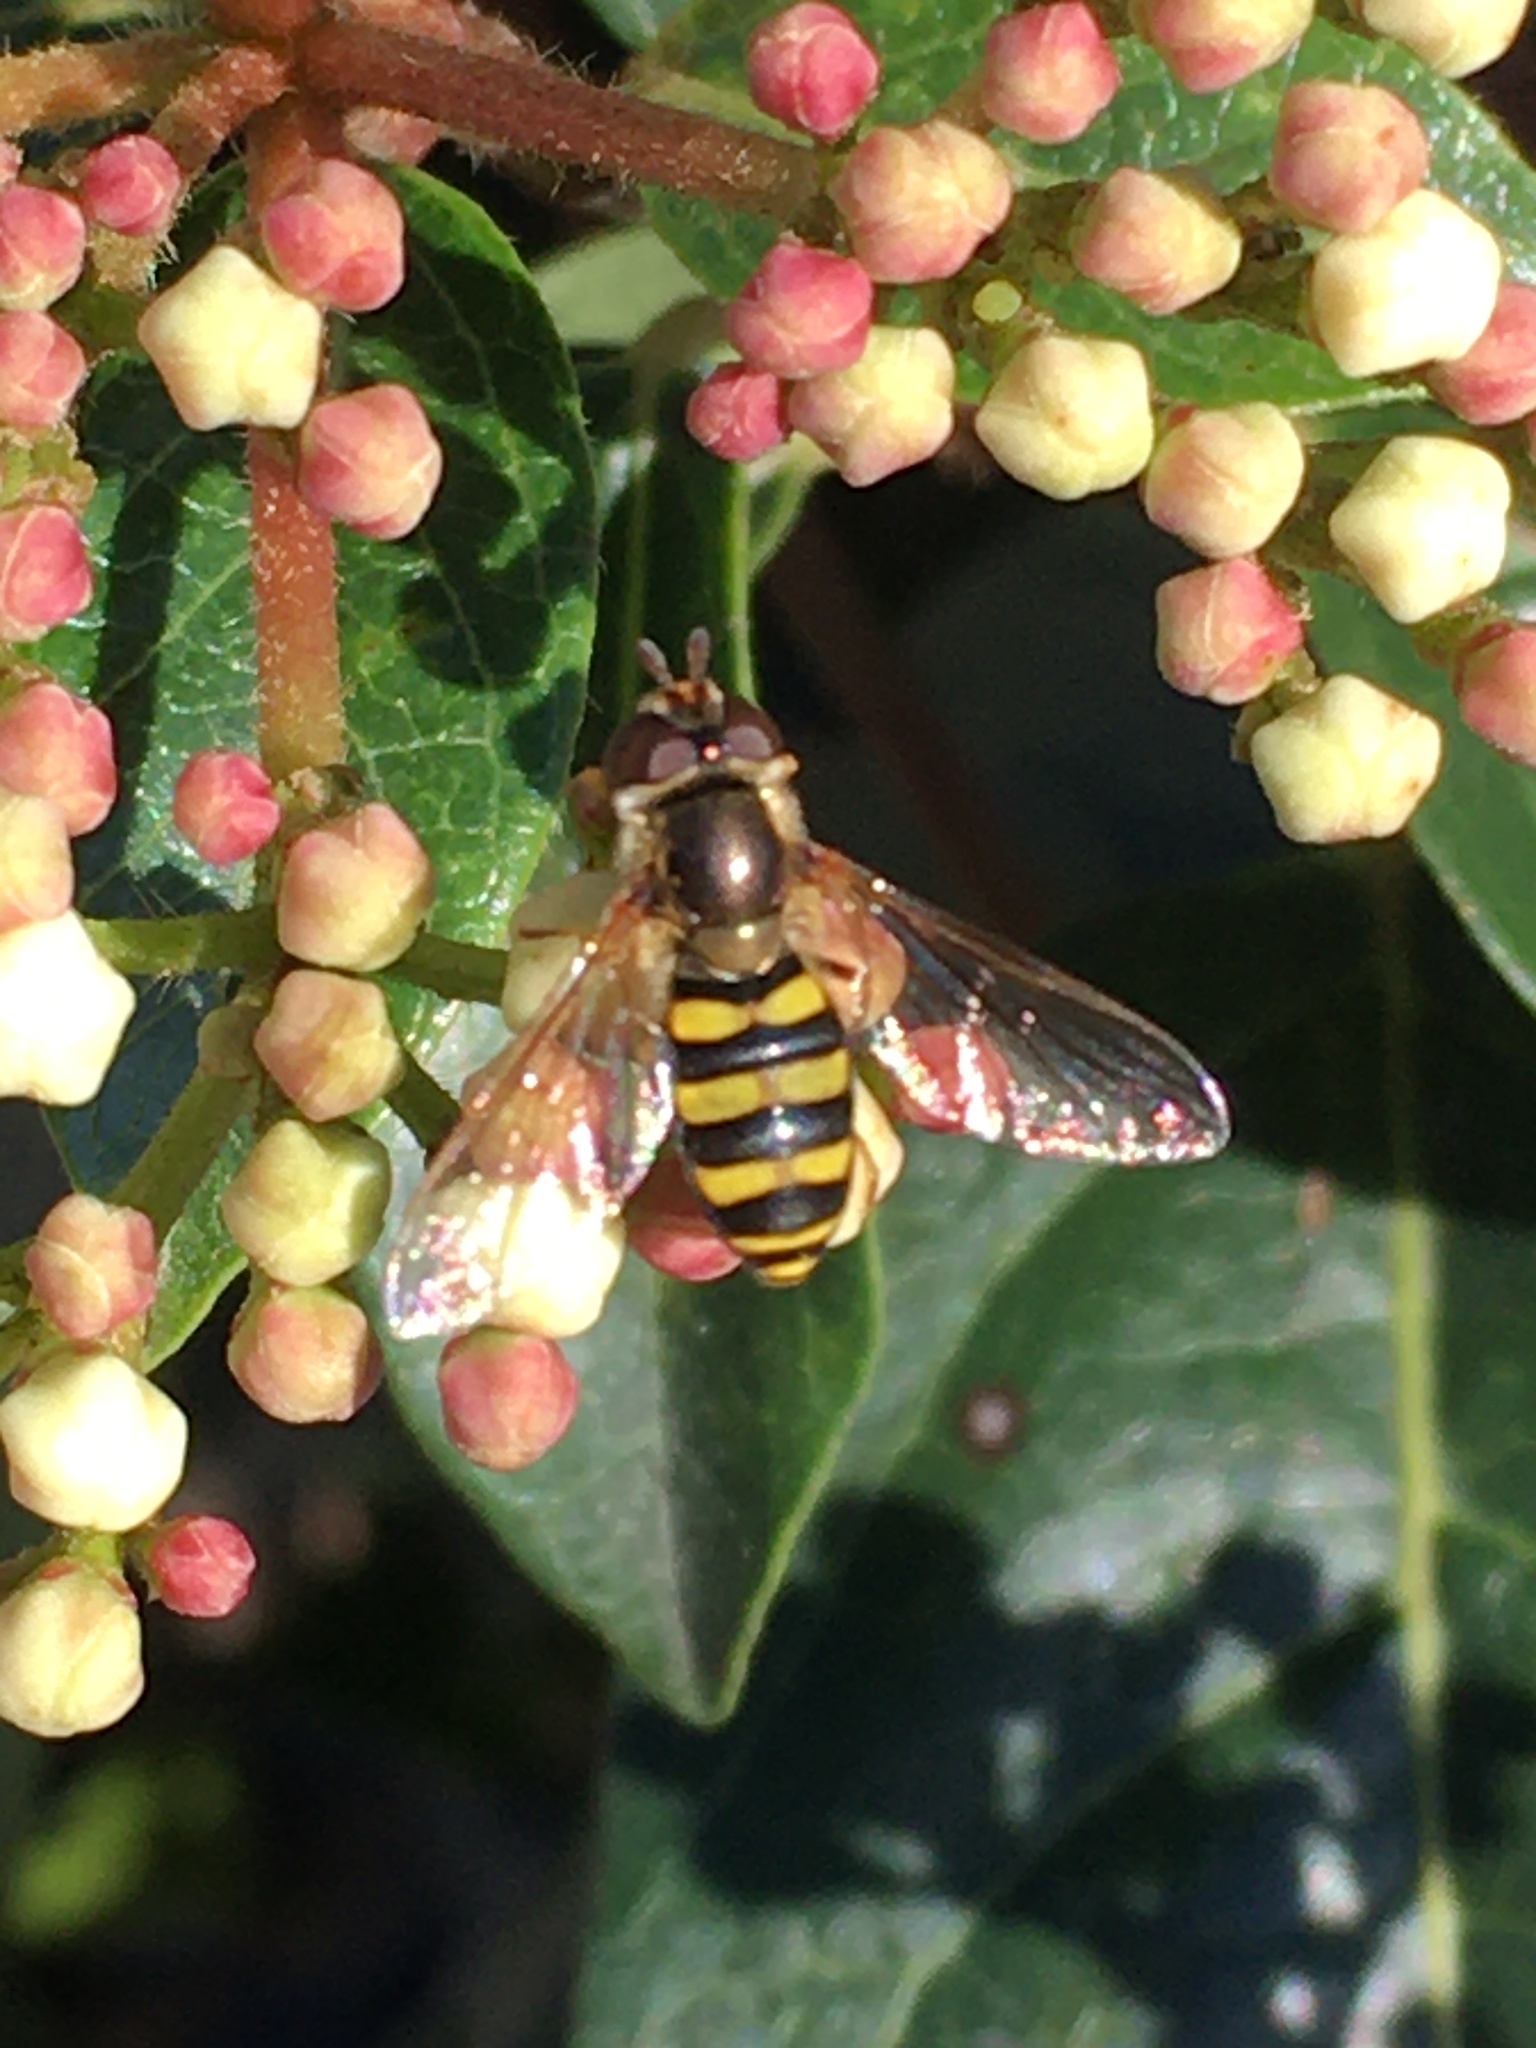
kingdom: Animalia
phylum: Arthropoda
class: Insecta
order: Diptera
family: Syrphidae
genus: Eupeodes
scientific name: Eupeodes
